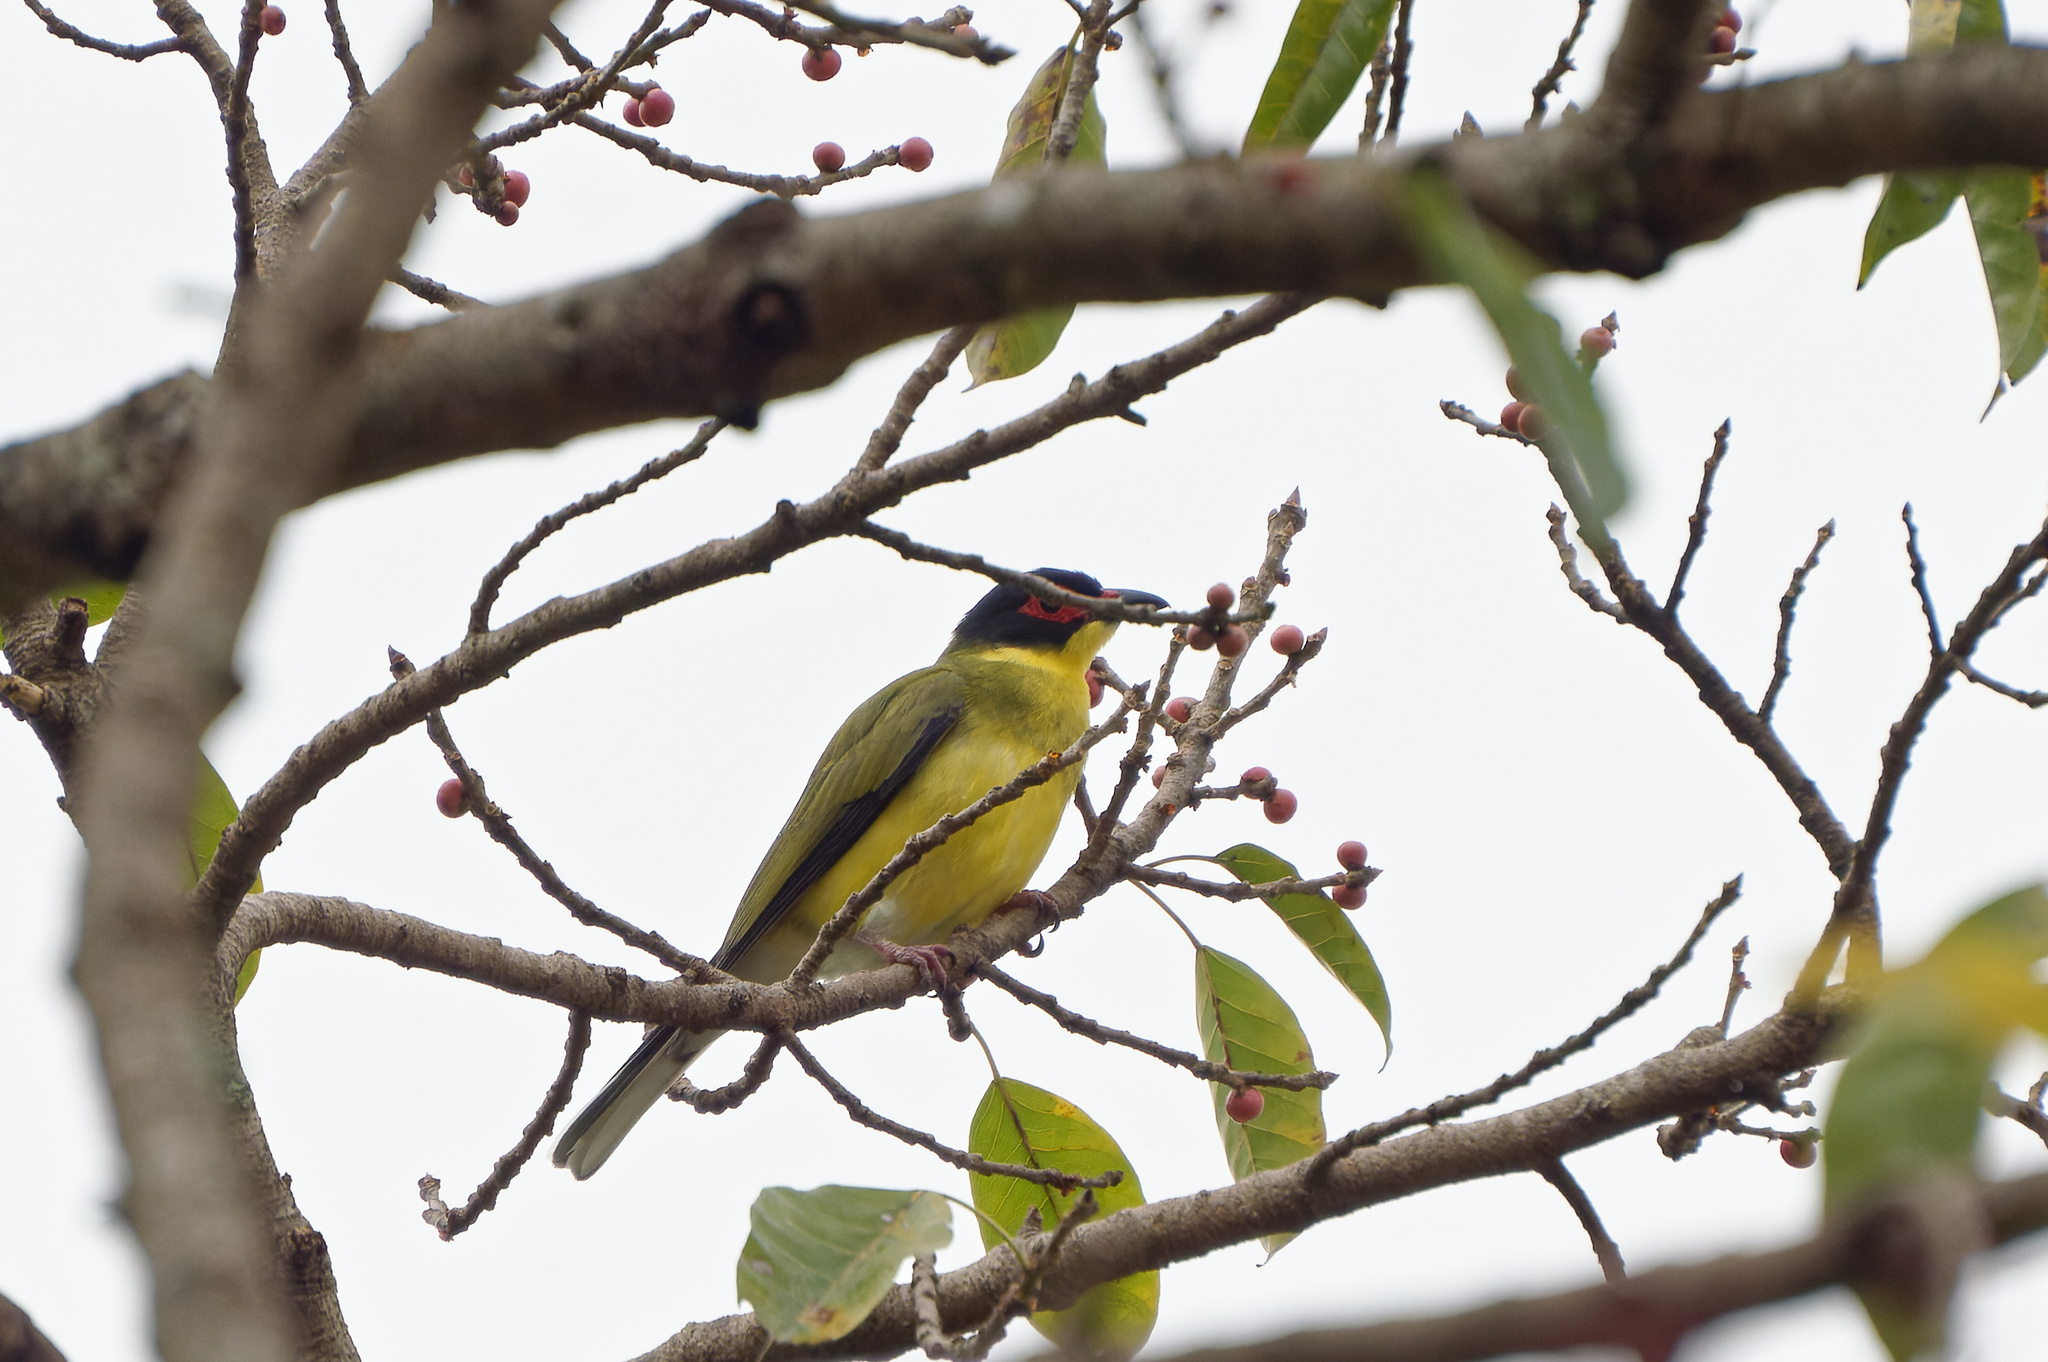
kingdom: Animalia
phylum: Chordata
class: Aves
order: Passeriformes
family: Oriolidae
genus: Sphecotheres
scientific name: Sphecotheres vieilloti
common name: Australasian figbird
